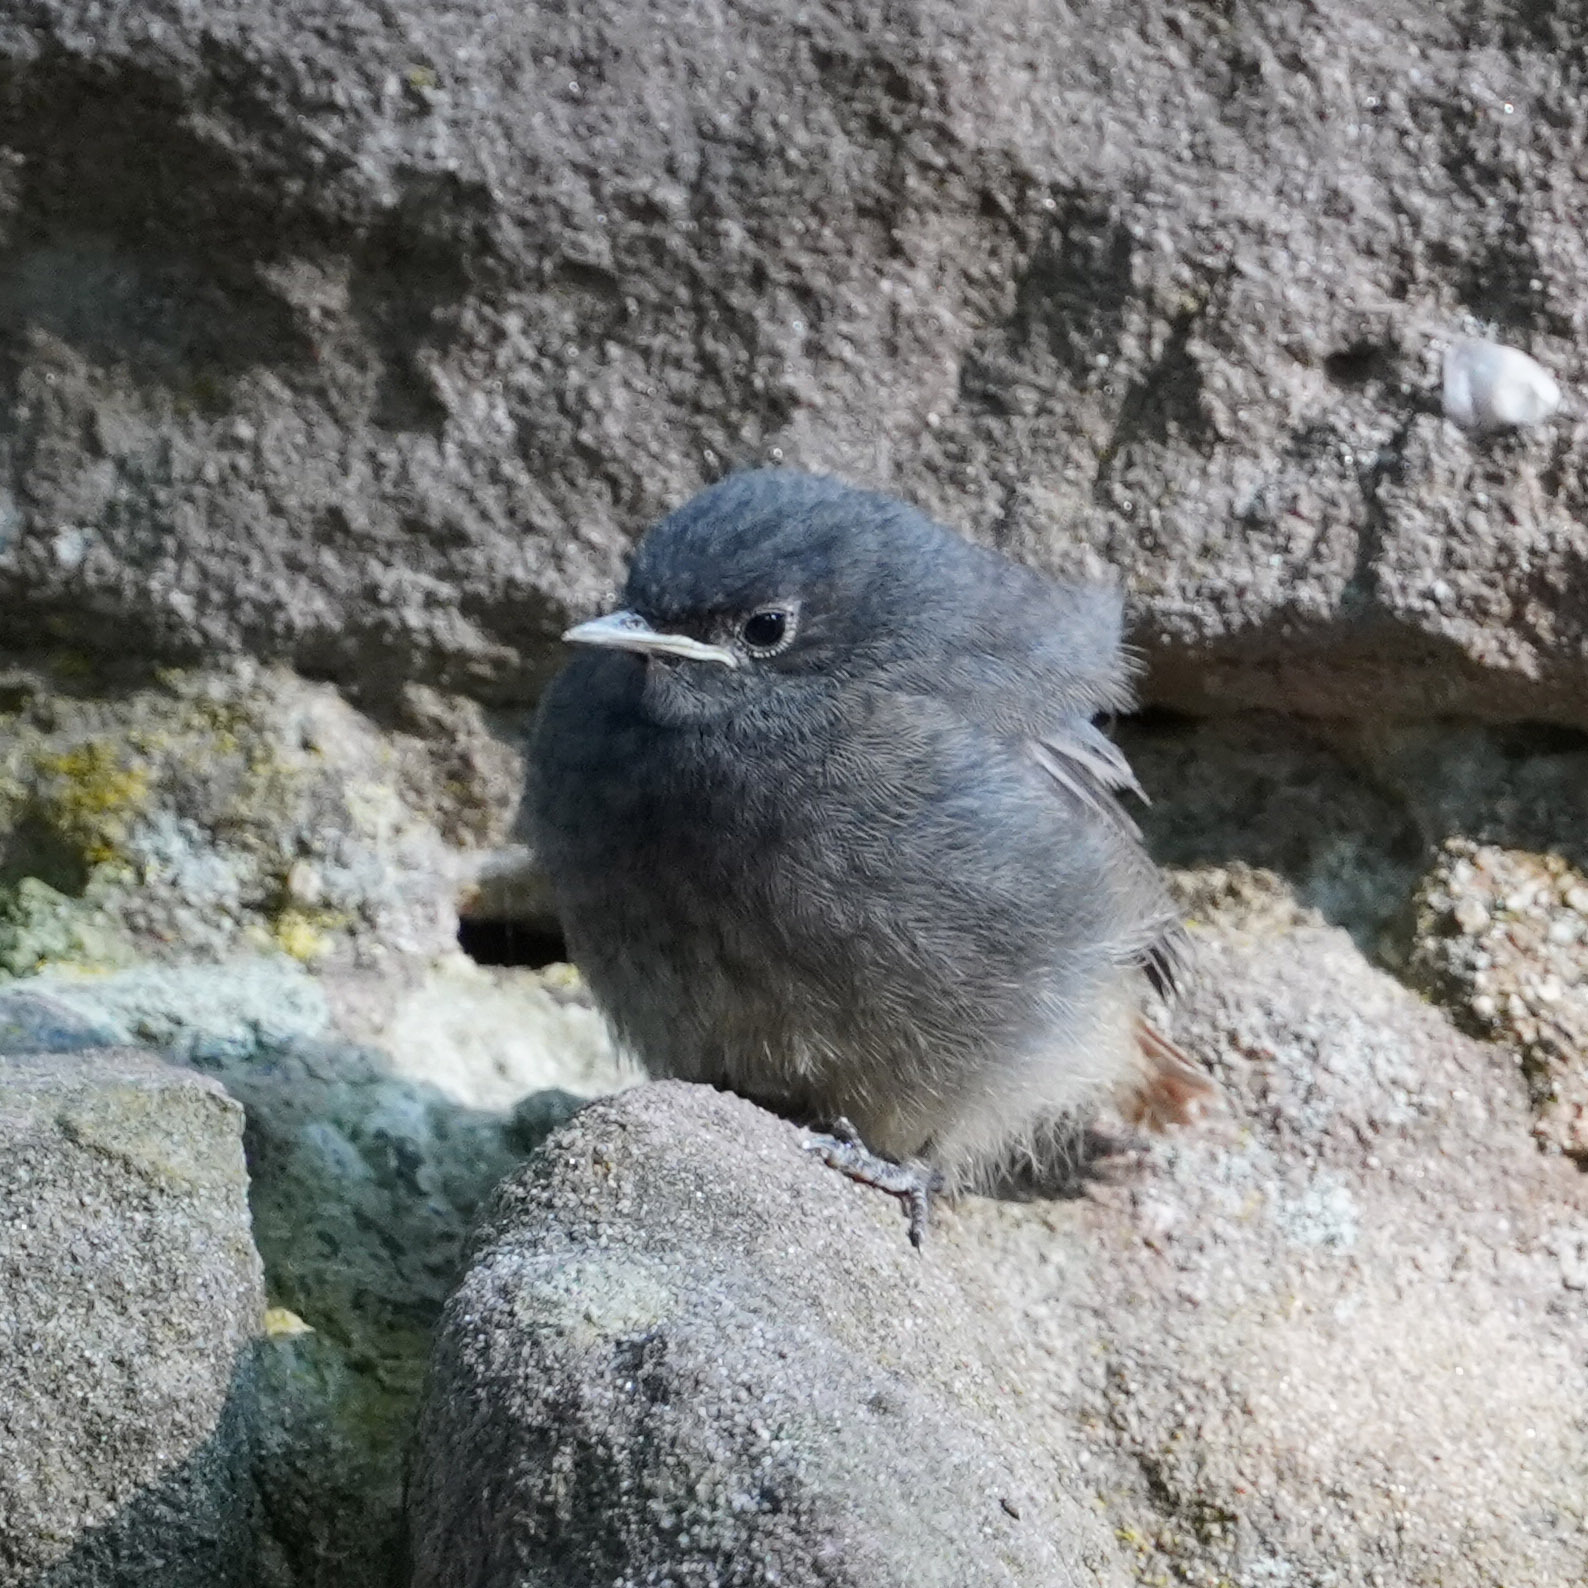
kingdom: Animalia
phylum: Chordata
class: Aves
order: Passeriformes
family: Muscicapidae
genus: Phoenicurus
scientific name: Phoenicurus ochruros
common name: Black redstart
